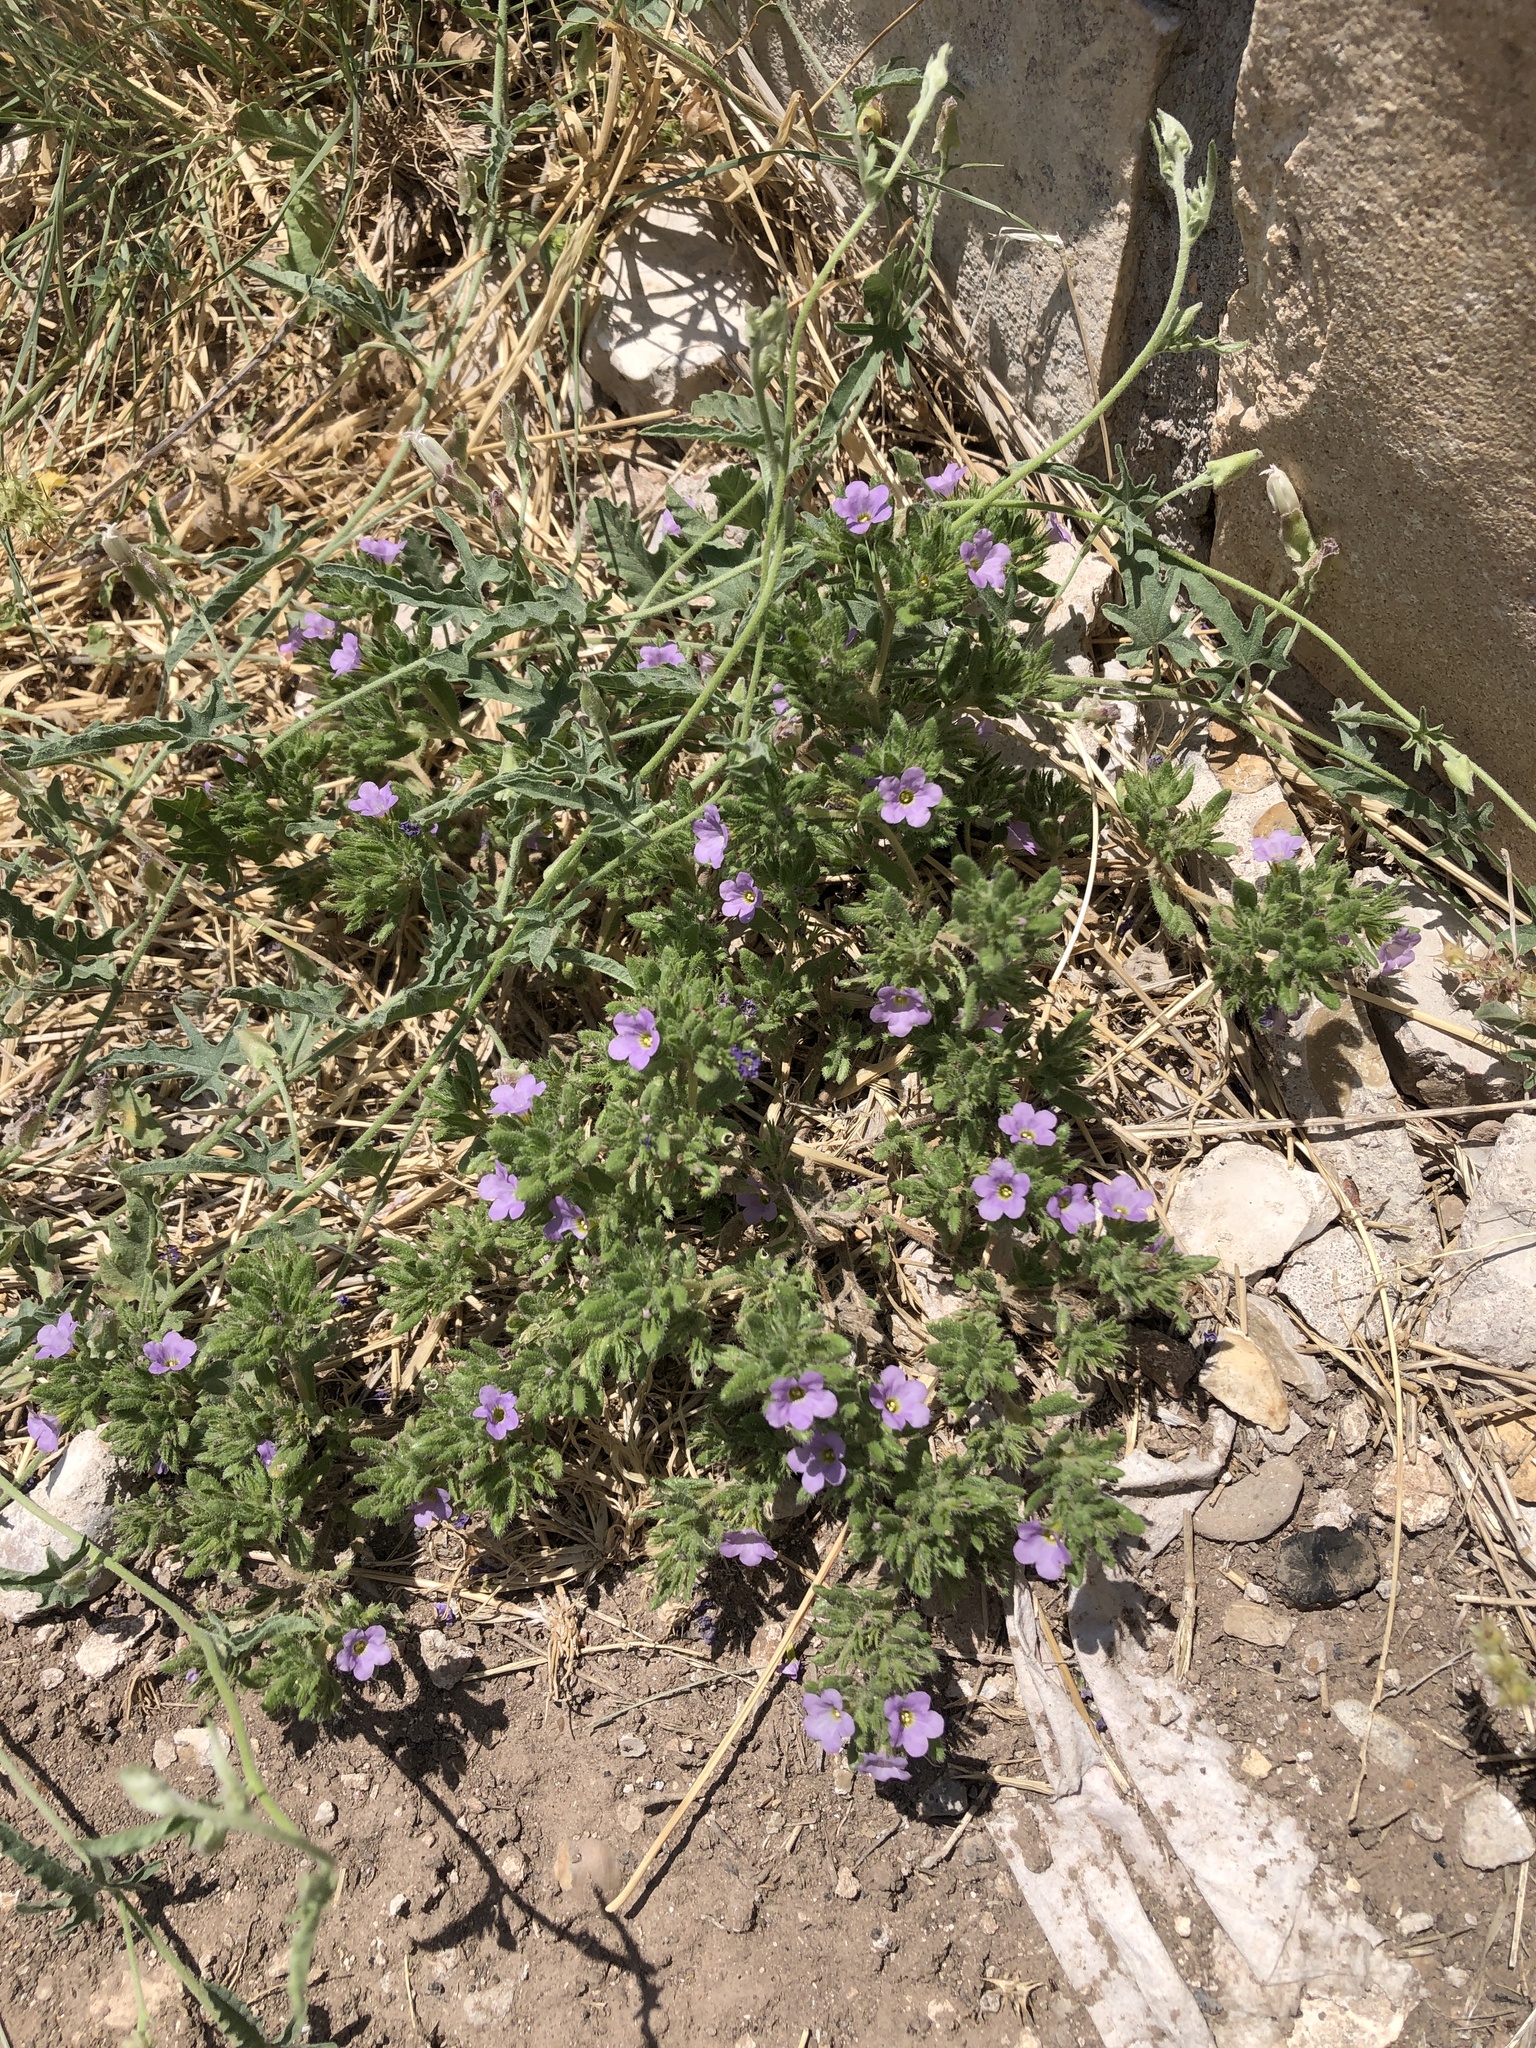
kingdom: Plantae
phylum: Tracheophyta
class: Magnoliopsida
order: Boraginales
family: Namaceae
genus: Nama
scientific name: Nama hispida
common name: Bristly nama
